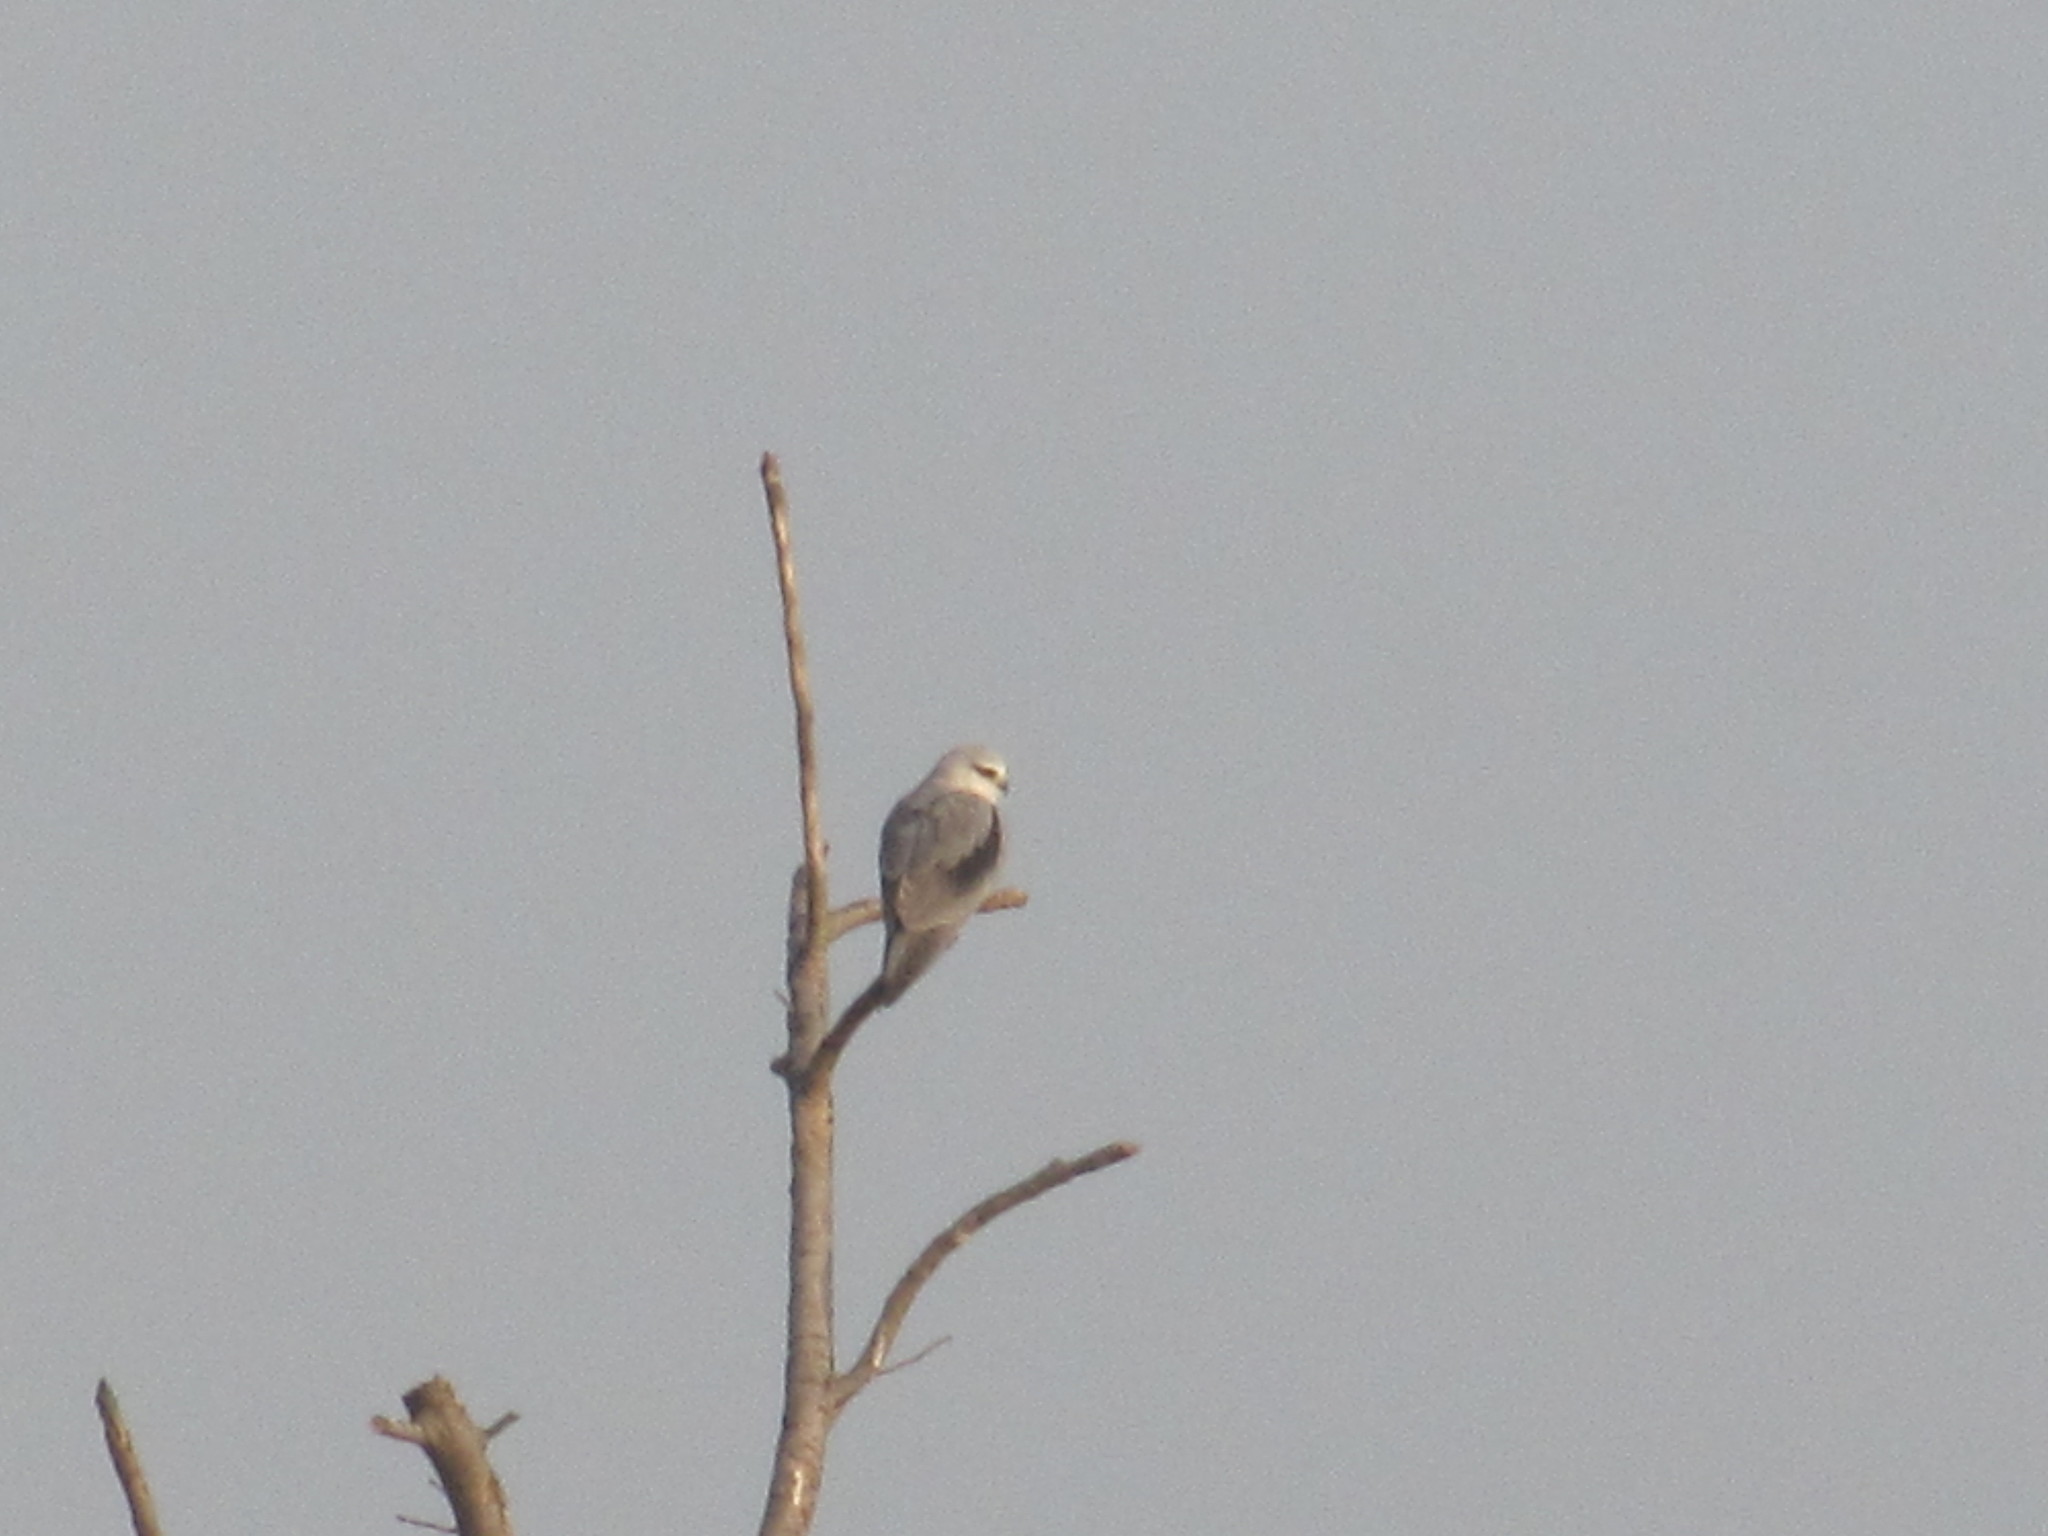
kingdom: Animalia
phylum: Chordata
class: Aves
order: Accipitriformes
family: Accipitridae
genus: Elanus
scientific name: Elanus caeruleus
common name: Black-winged kite
